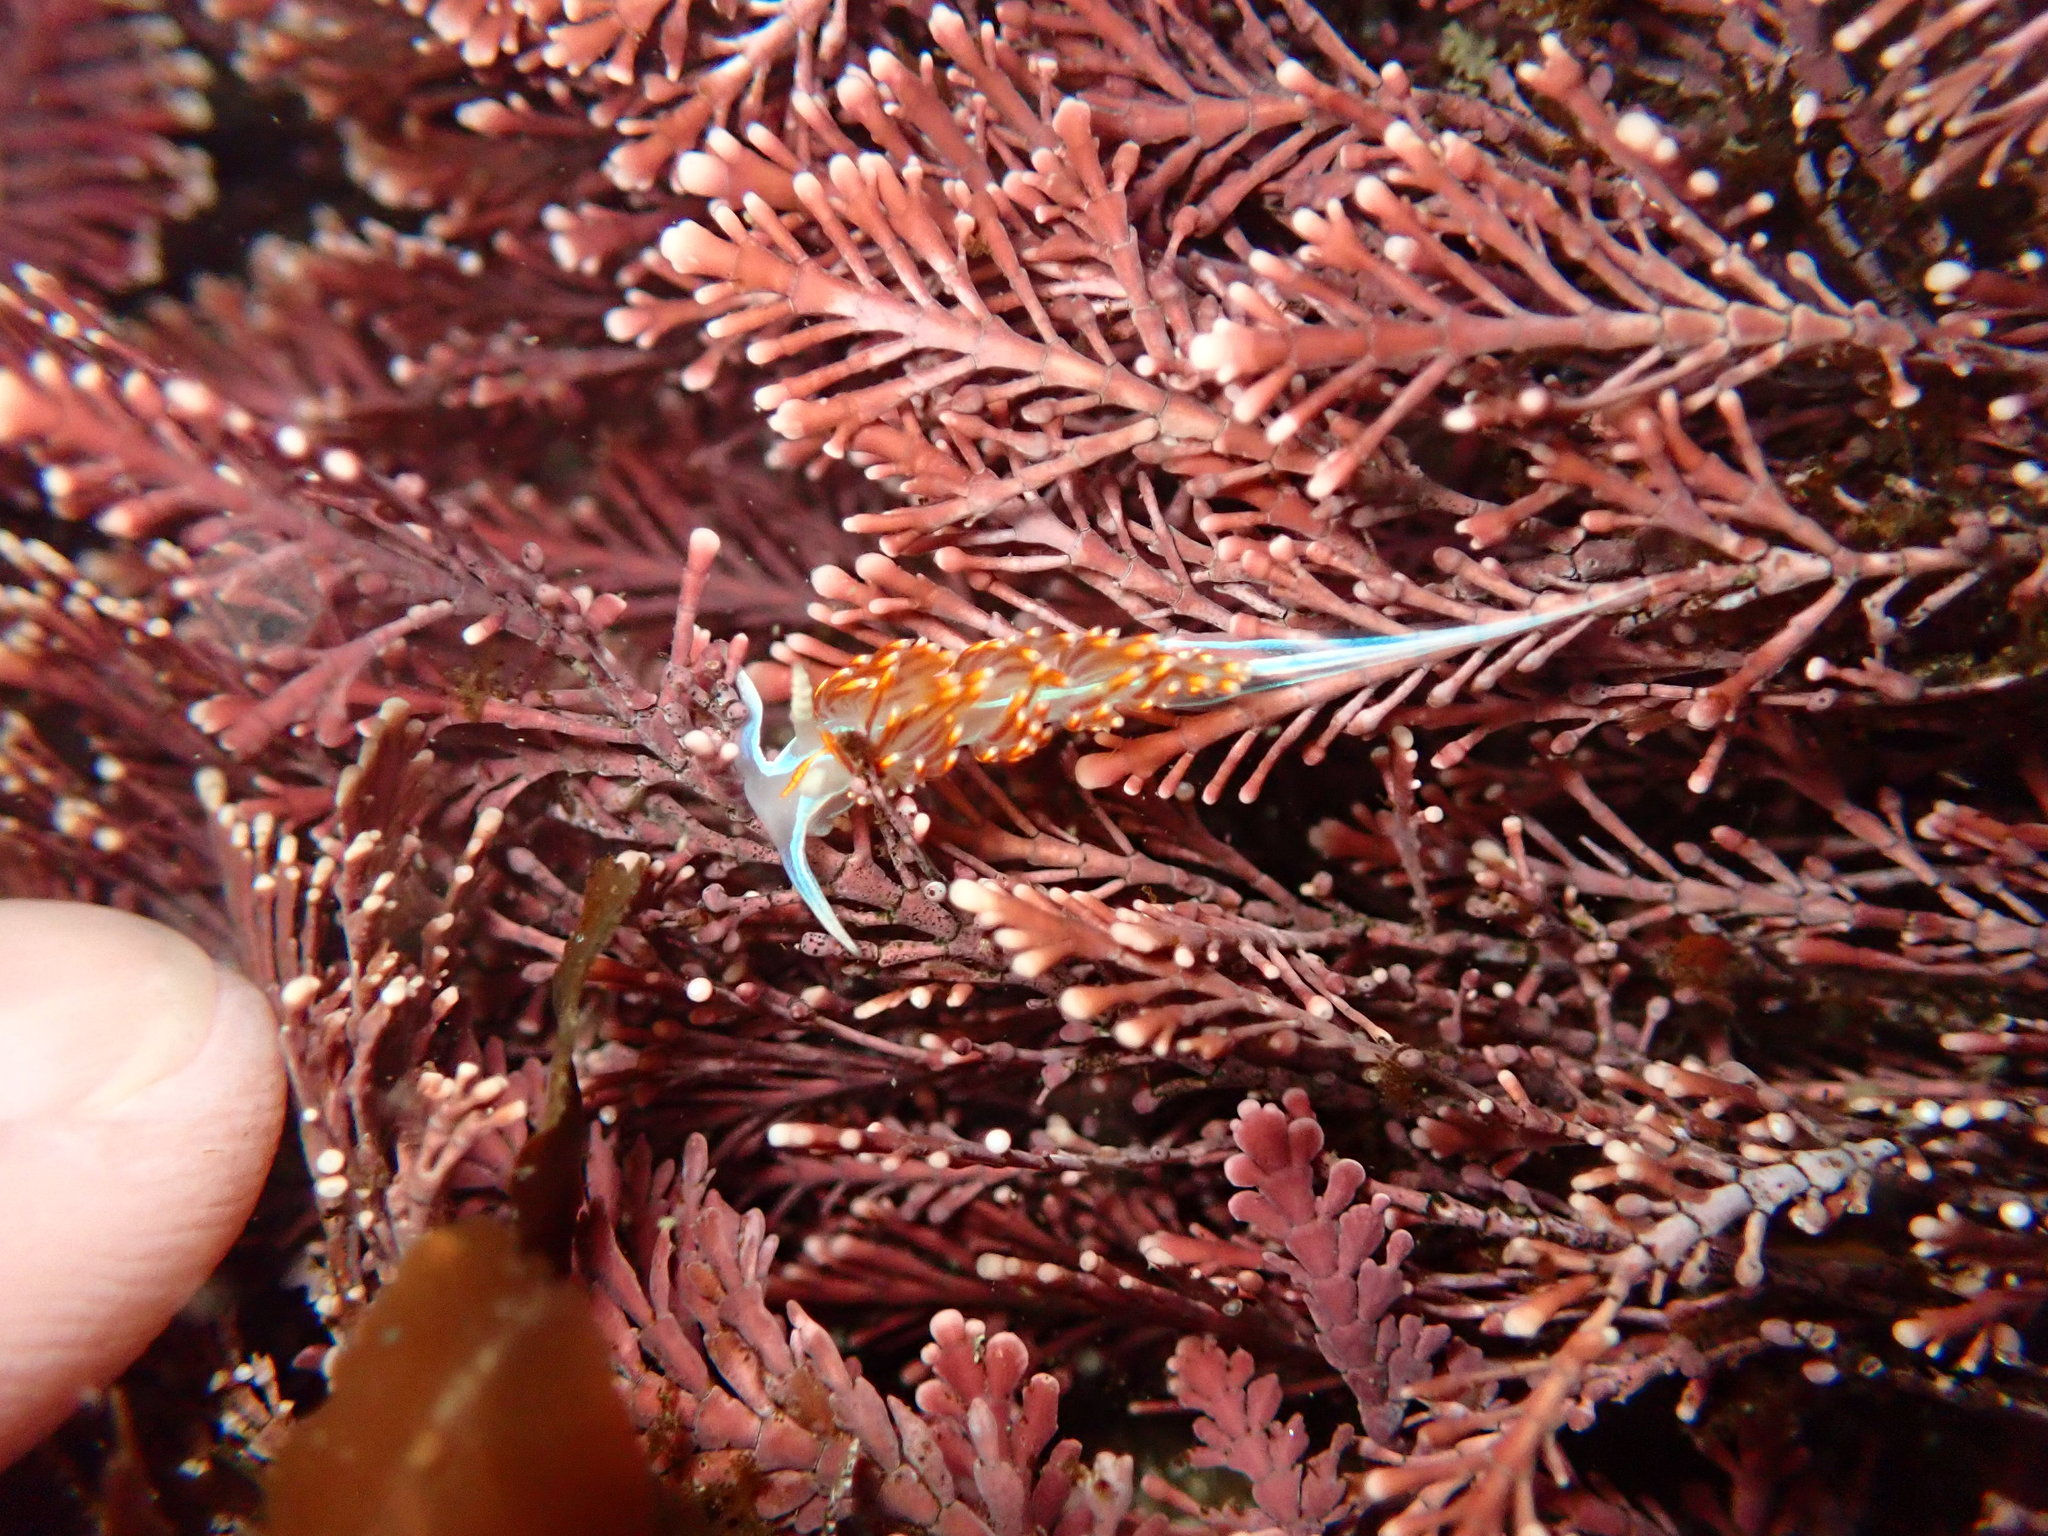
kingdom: Animalia
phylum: Mollusca
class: Gastropoda
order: Nudibranchia
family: Myrrhinidae
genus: Hermissenda
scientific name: Hermissenda opalescens
